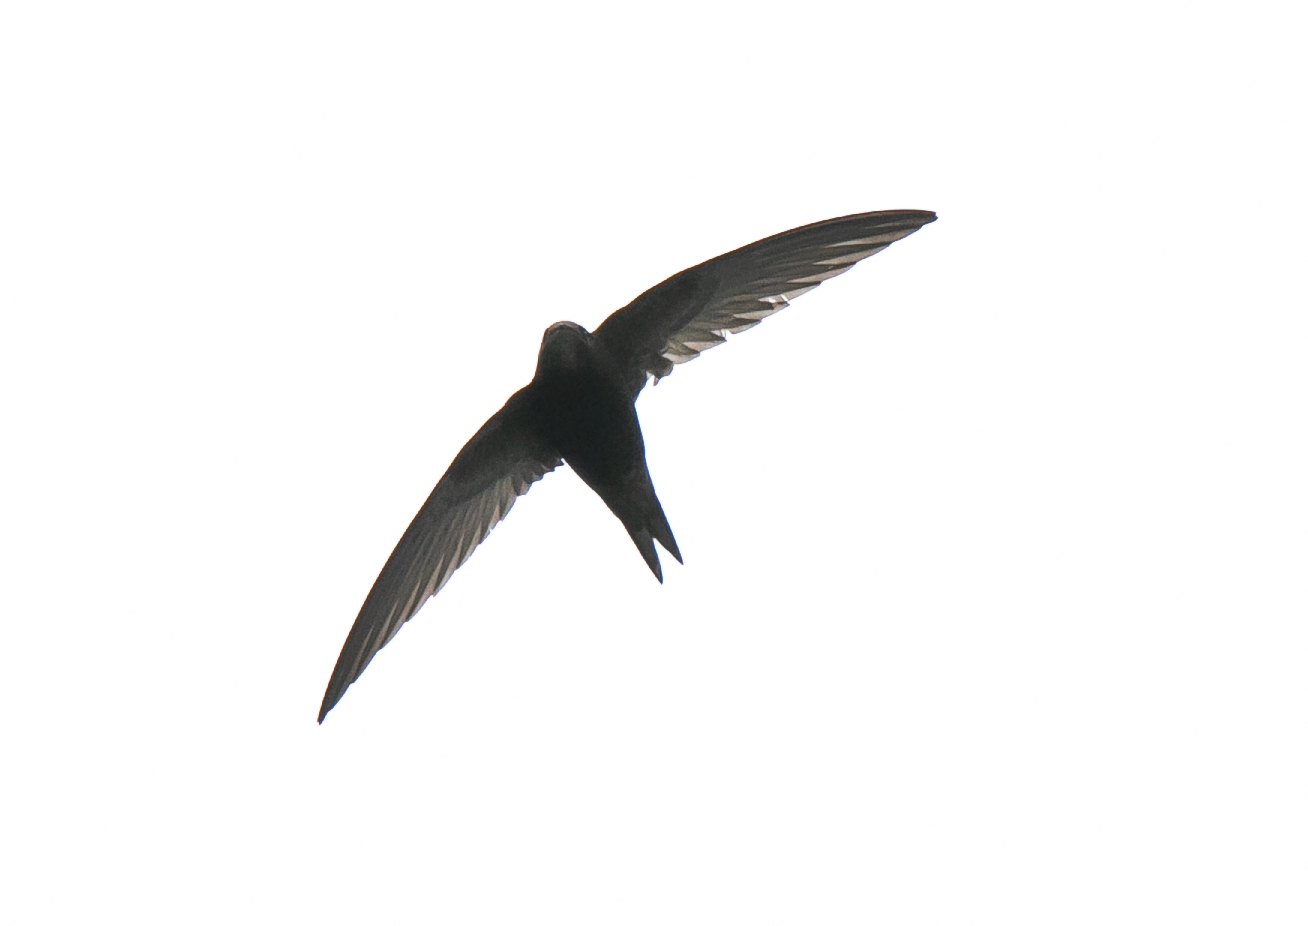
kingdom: Animalia
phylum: Chordata
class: Aves
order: Apodiformes
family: Apodidae
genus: Apus
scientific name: Apus apus
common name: Common swift
